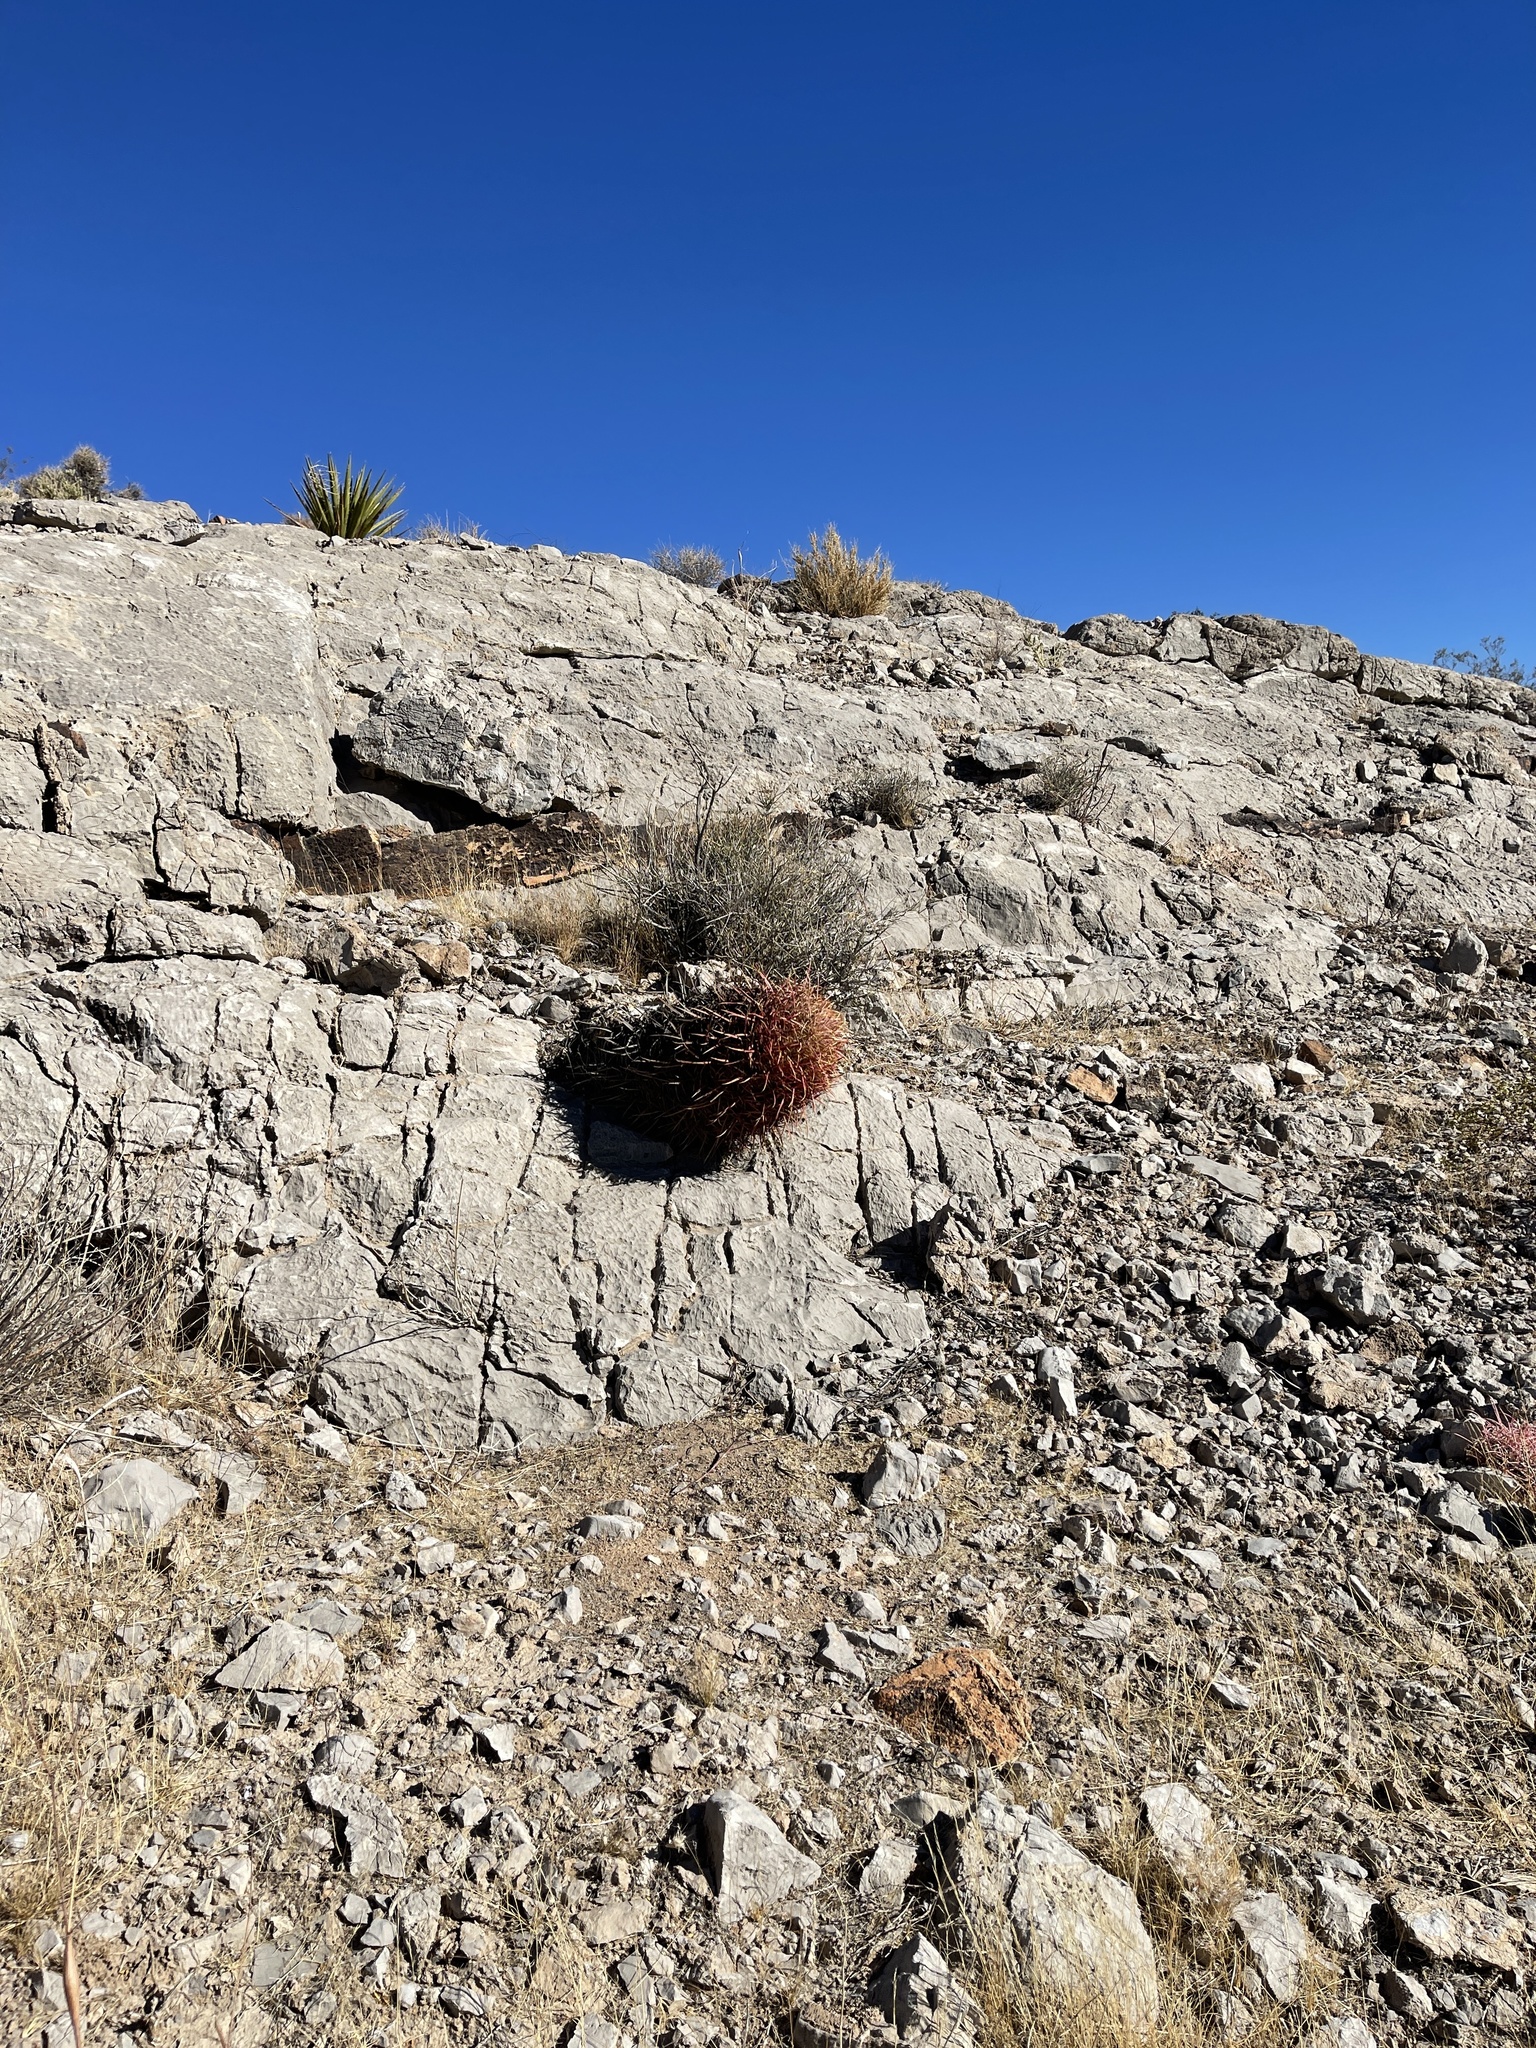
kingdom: Plantae
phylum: Tracheophyta
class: Magnoliopsida
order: Caryophyllales
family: Cactaceae
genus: Ferocactus
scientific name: Ferocactus cylindraceus
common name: California barrel cactus
